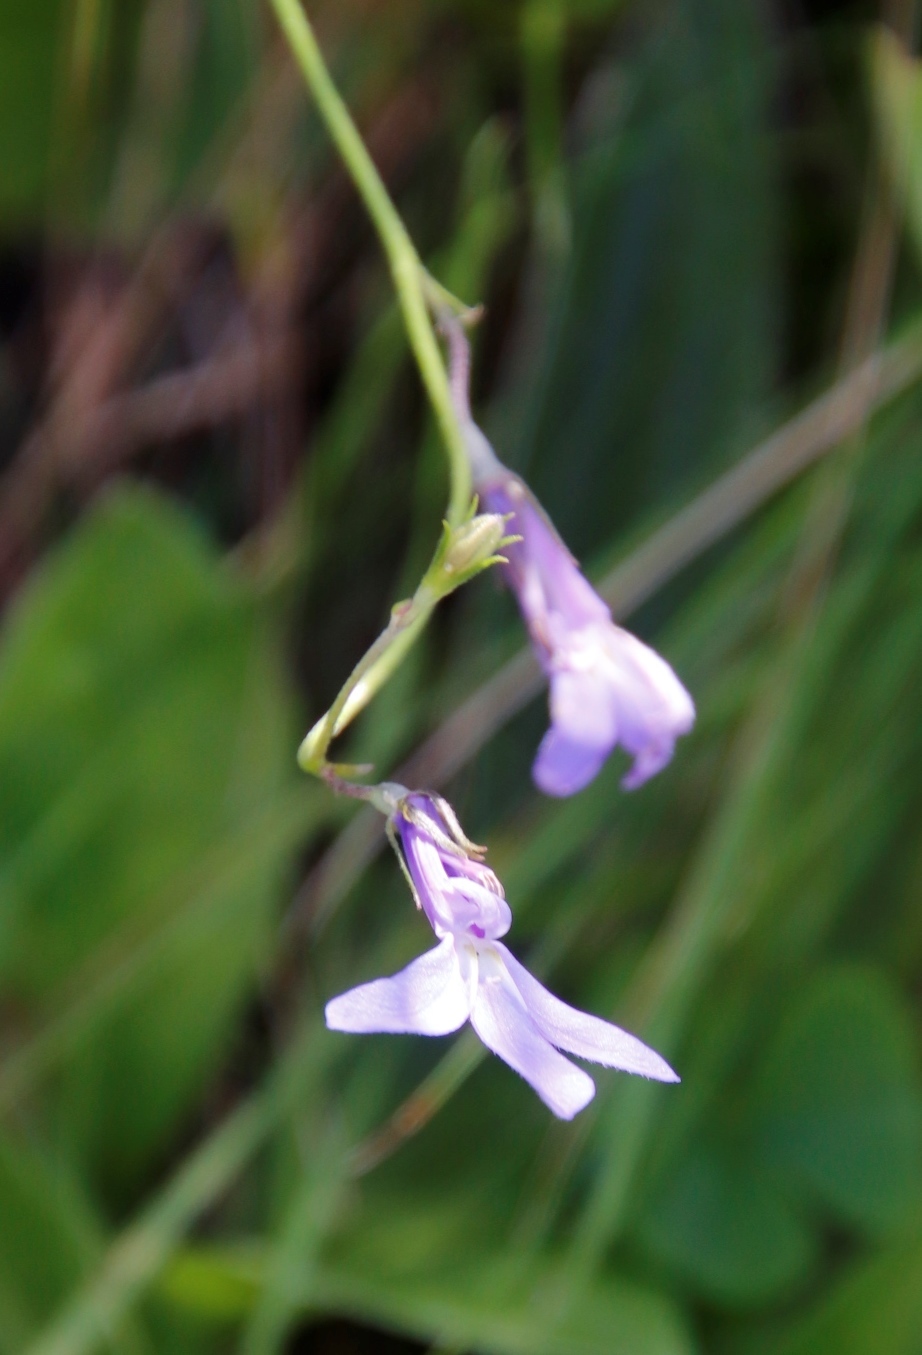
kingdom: Plantae
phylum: Tracheophyta
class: Magnoliopsida
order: Asterales
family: Campanulaceae
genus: Lobelia
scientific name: Lobelia preslii
